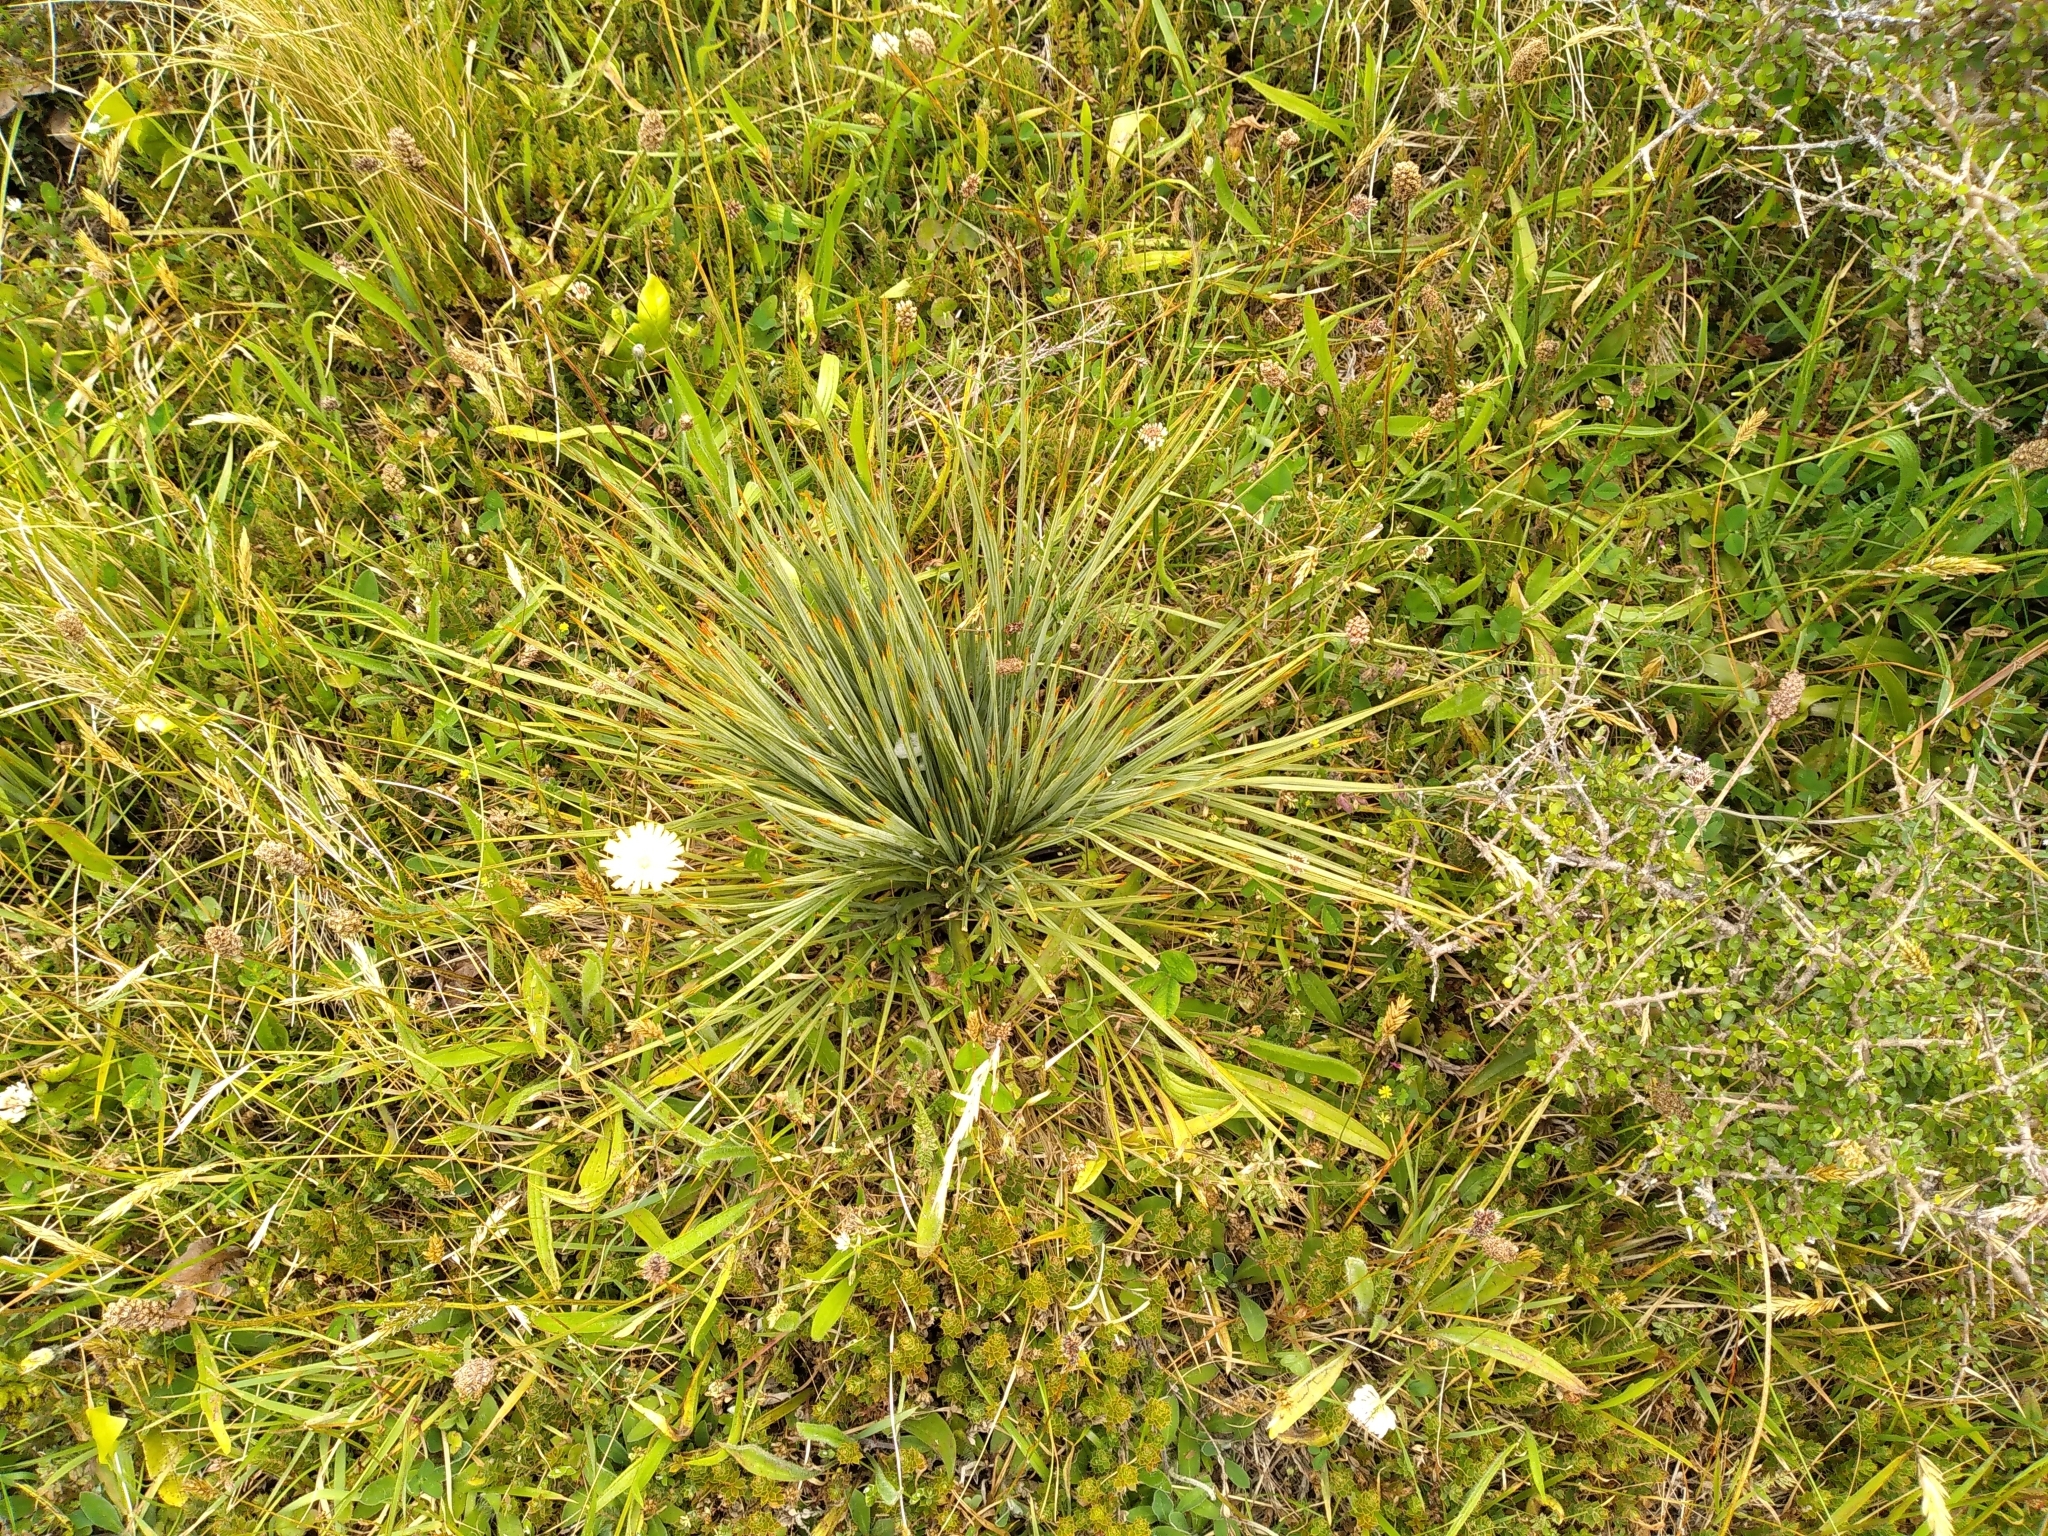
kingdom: Plantae
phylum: Tracheophyta
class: Magnoliopsida
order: Apiales
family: Apiaceae
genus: Aciphylla
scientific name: Aciphylla squarrosa
